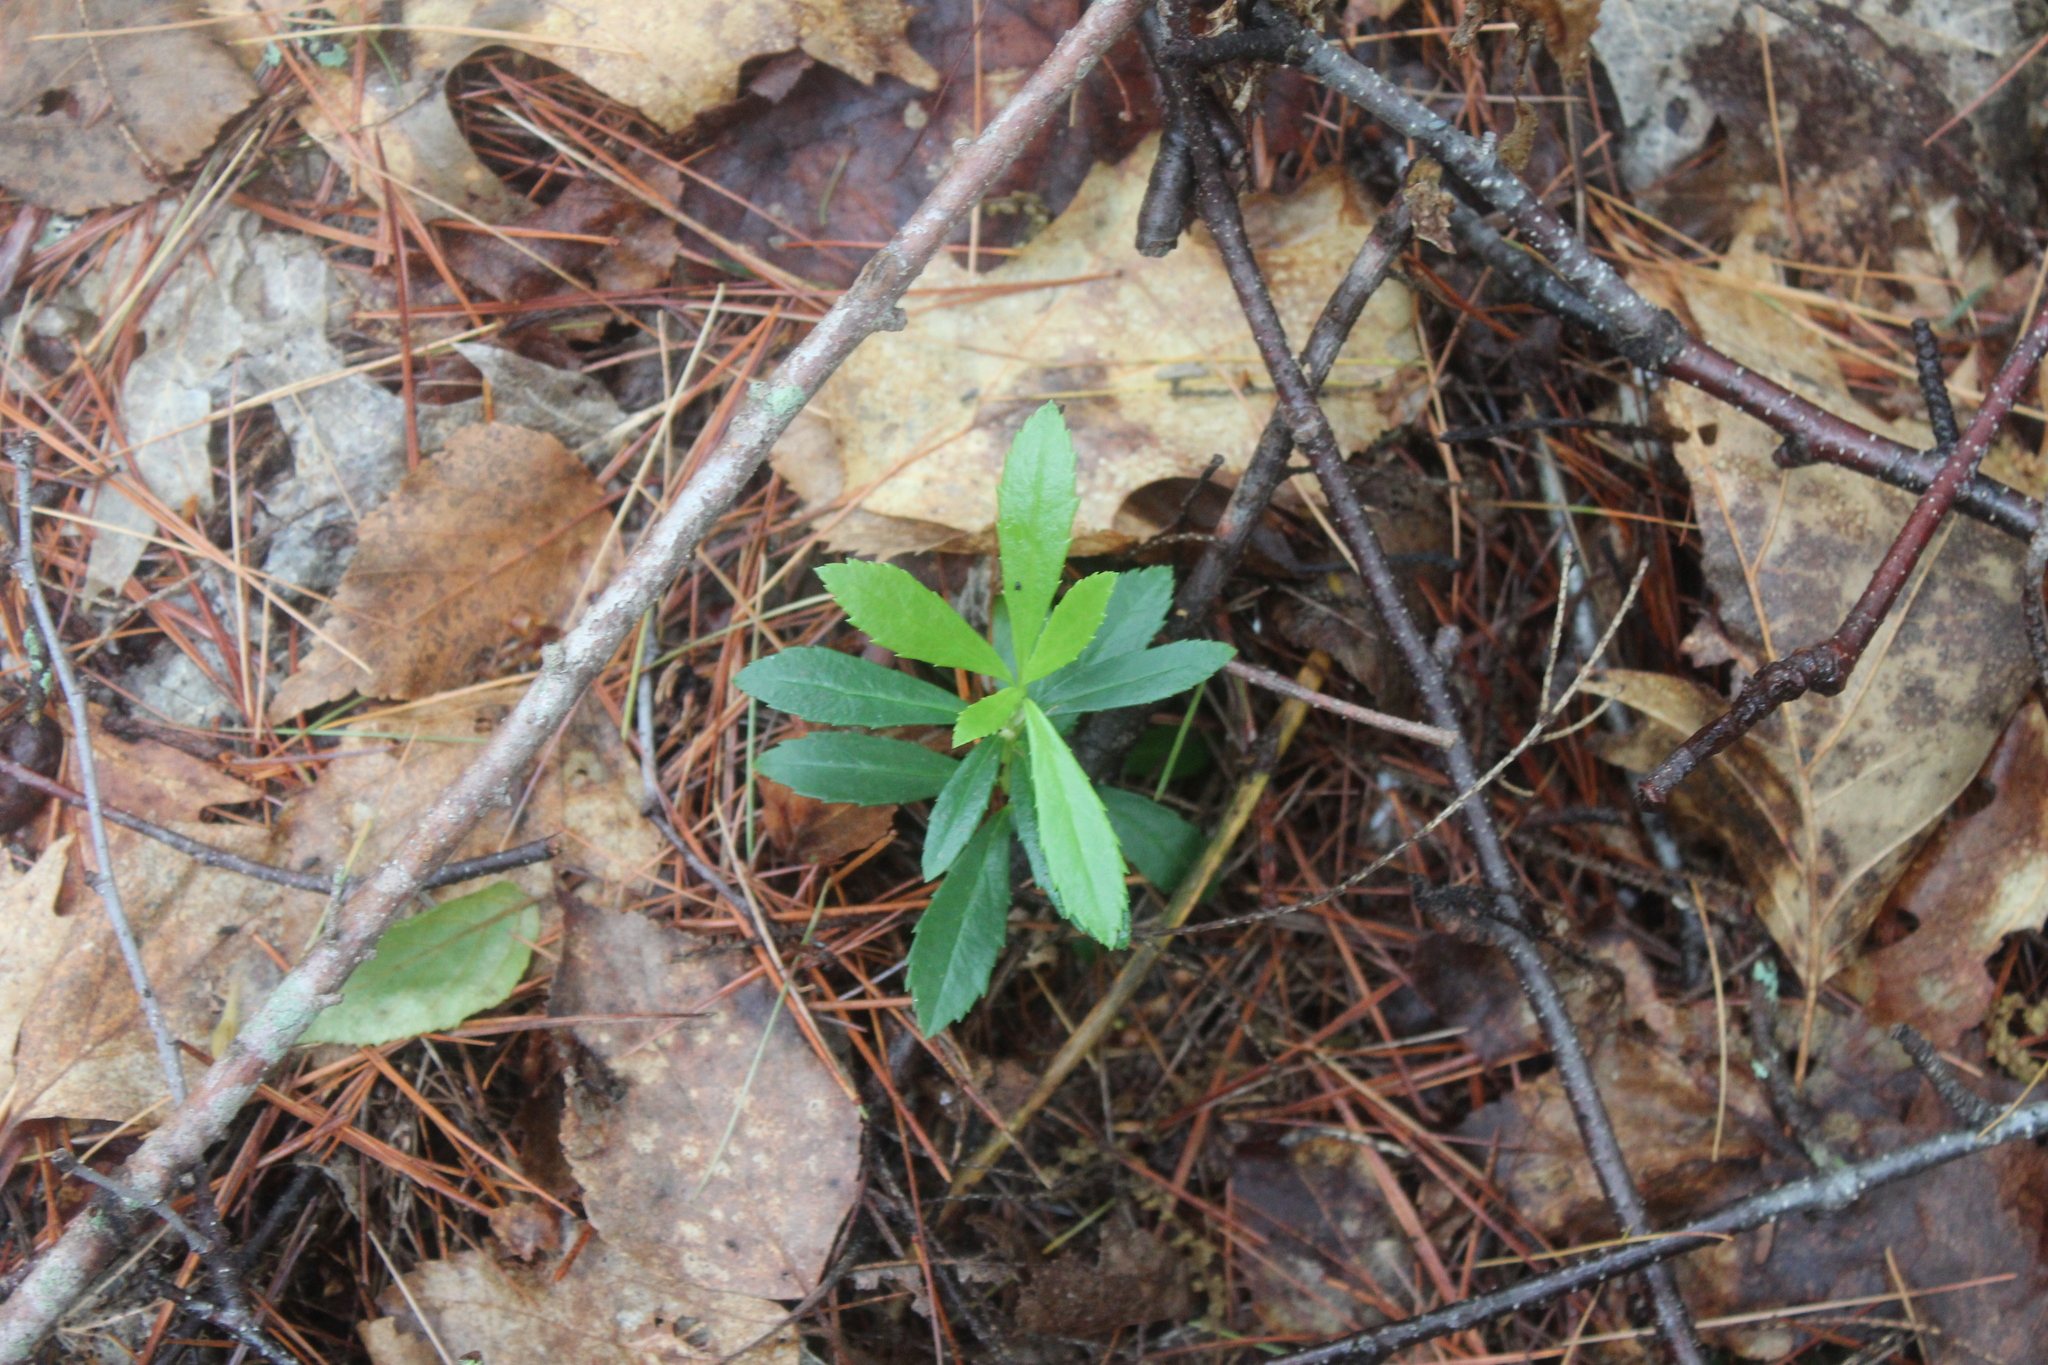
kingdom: Plantae
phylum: Tracheophyta
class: Magnoliopsida
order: Ericales
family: Ericaceae
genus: Chimaphila
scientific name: Chimaphila umbellata
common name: Pipsissewa
